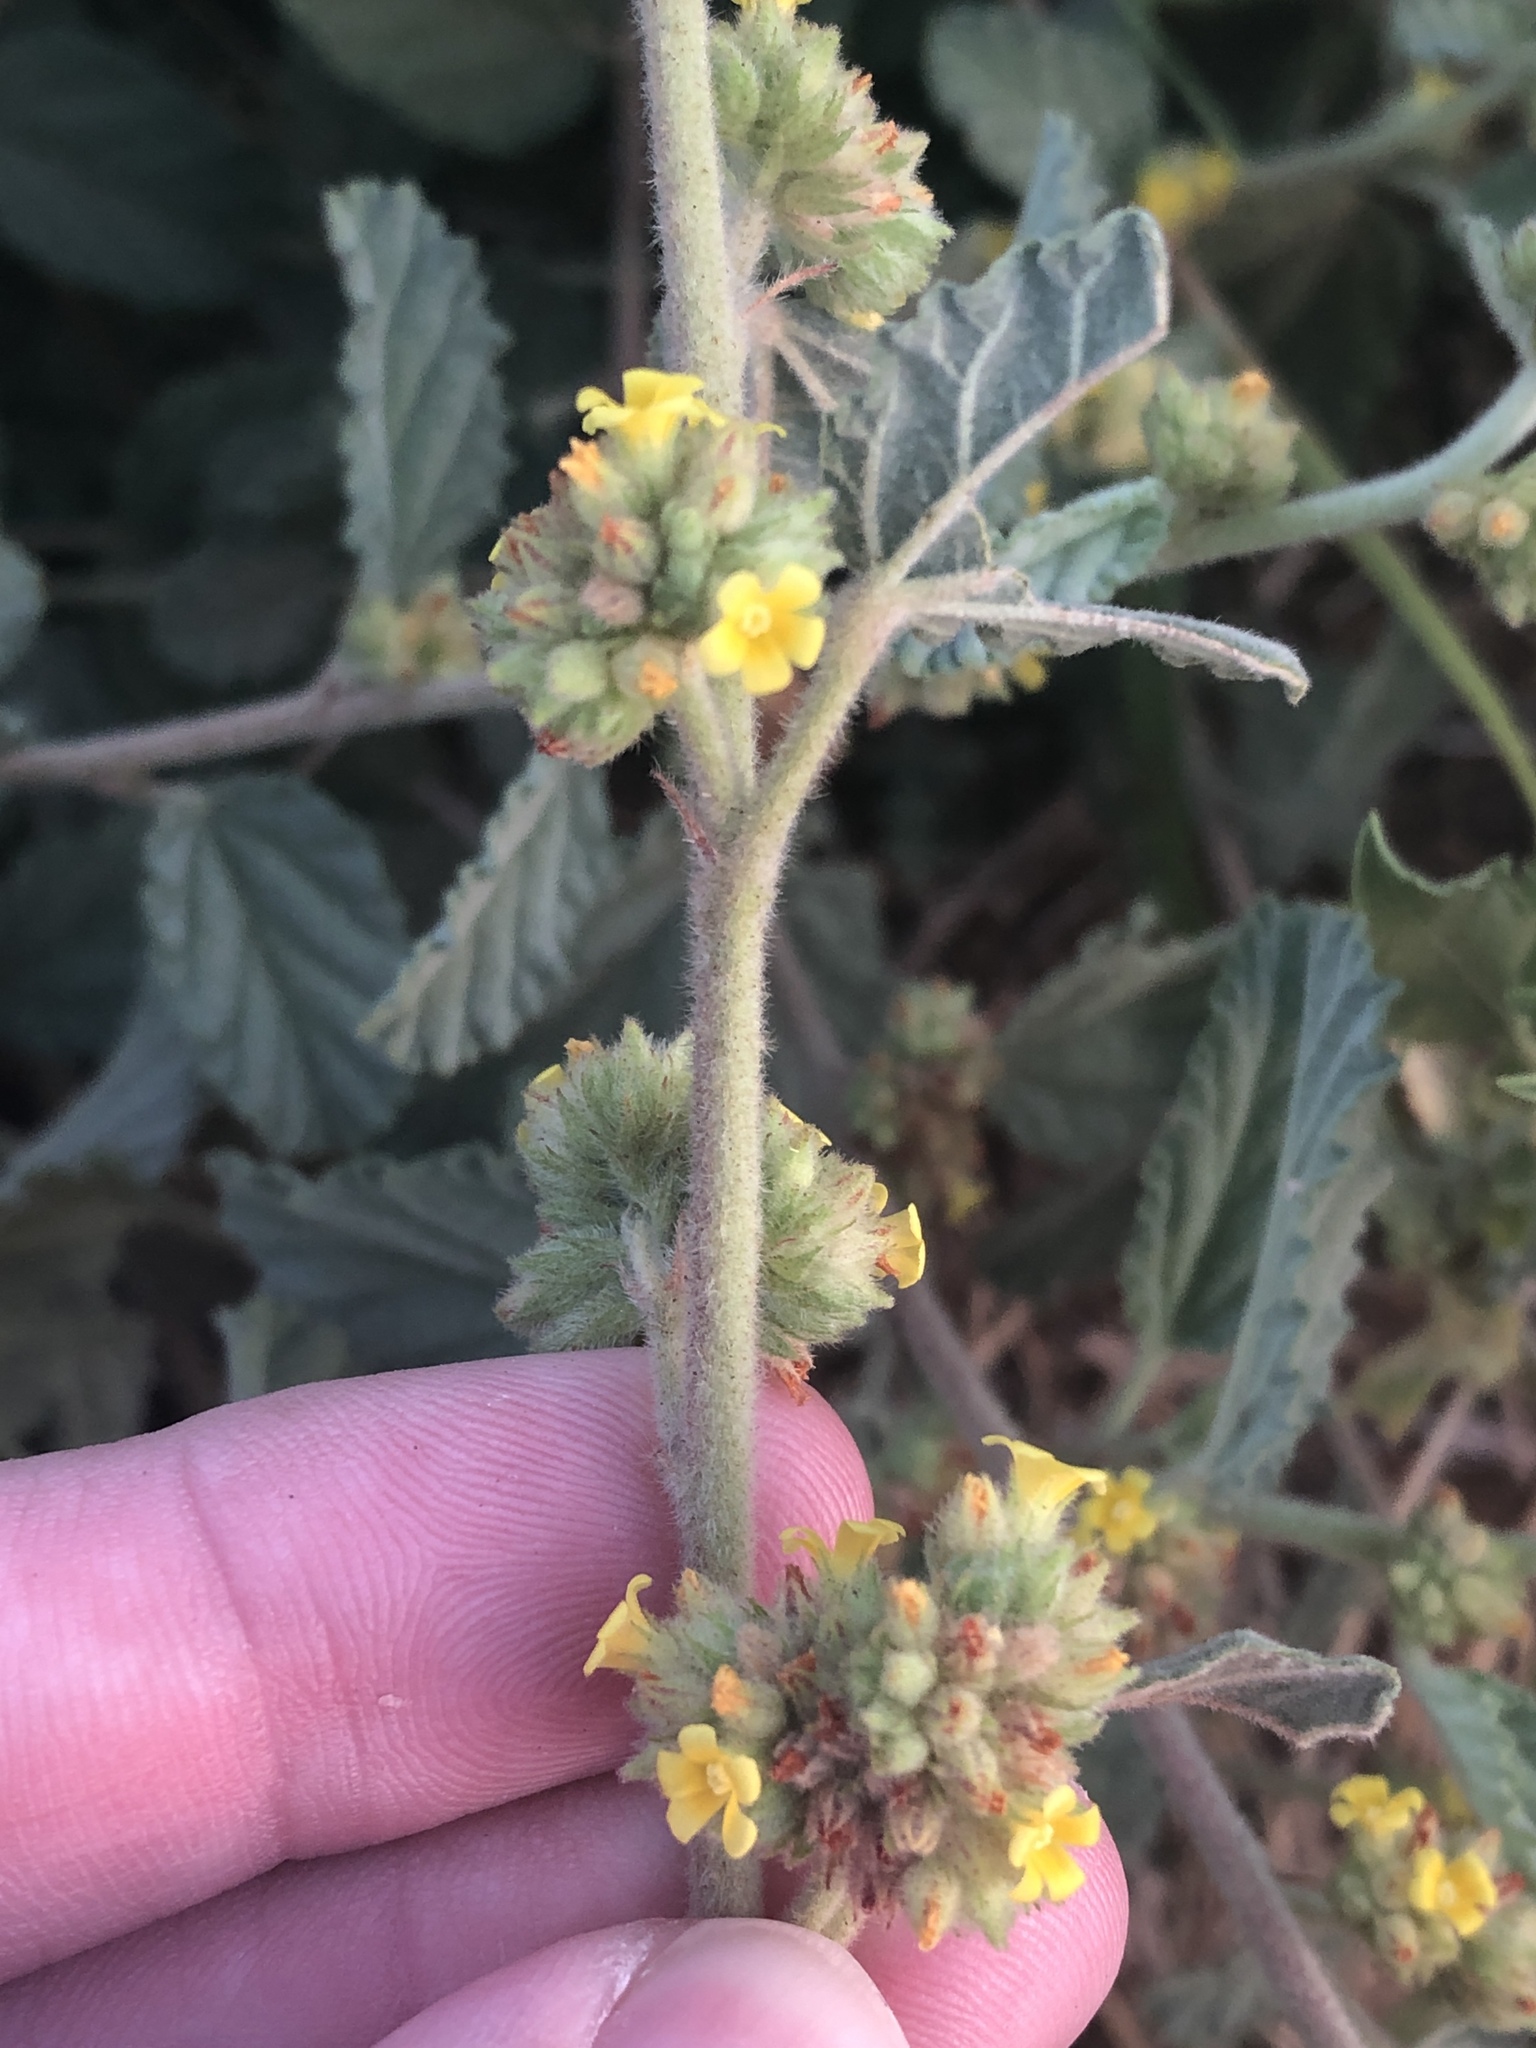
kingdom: Plantae
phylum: Tracheophyta
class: Magnoliopsida
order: Malvales
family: Malvaceae
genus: Waltheria
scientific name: Waltheria indica
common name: Leather-coat
